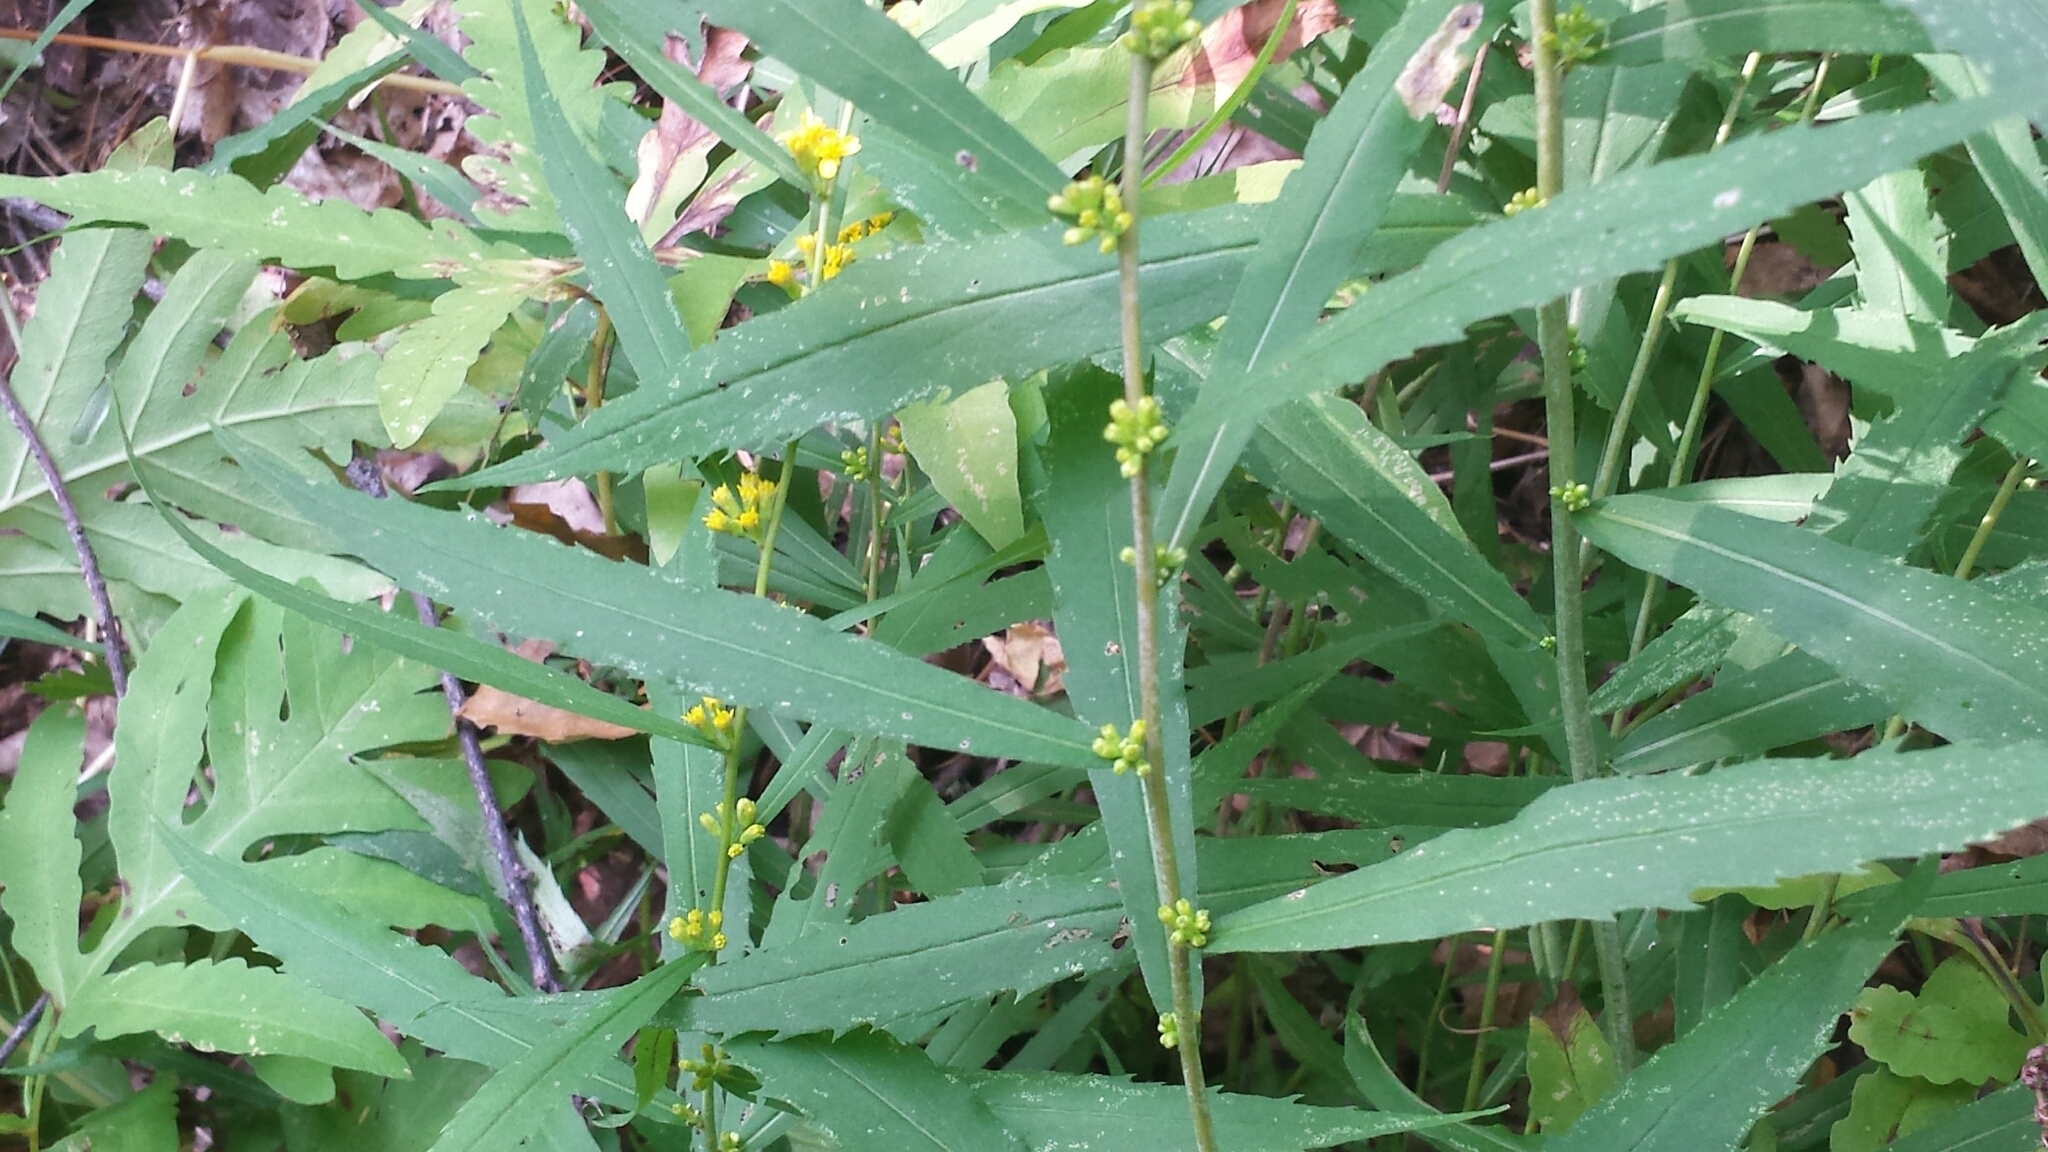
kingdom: Plantae
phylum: Tracheophyta
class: Magnoliopsida
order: Asterales
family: Asteraceae
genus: Solidago
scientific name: Solidago caesia
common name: Woodland goldenrod
